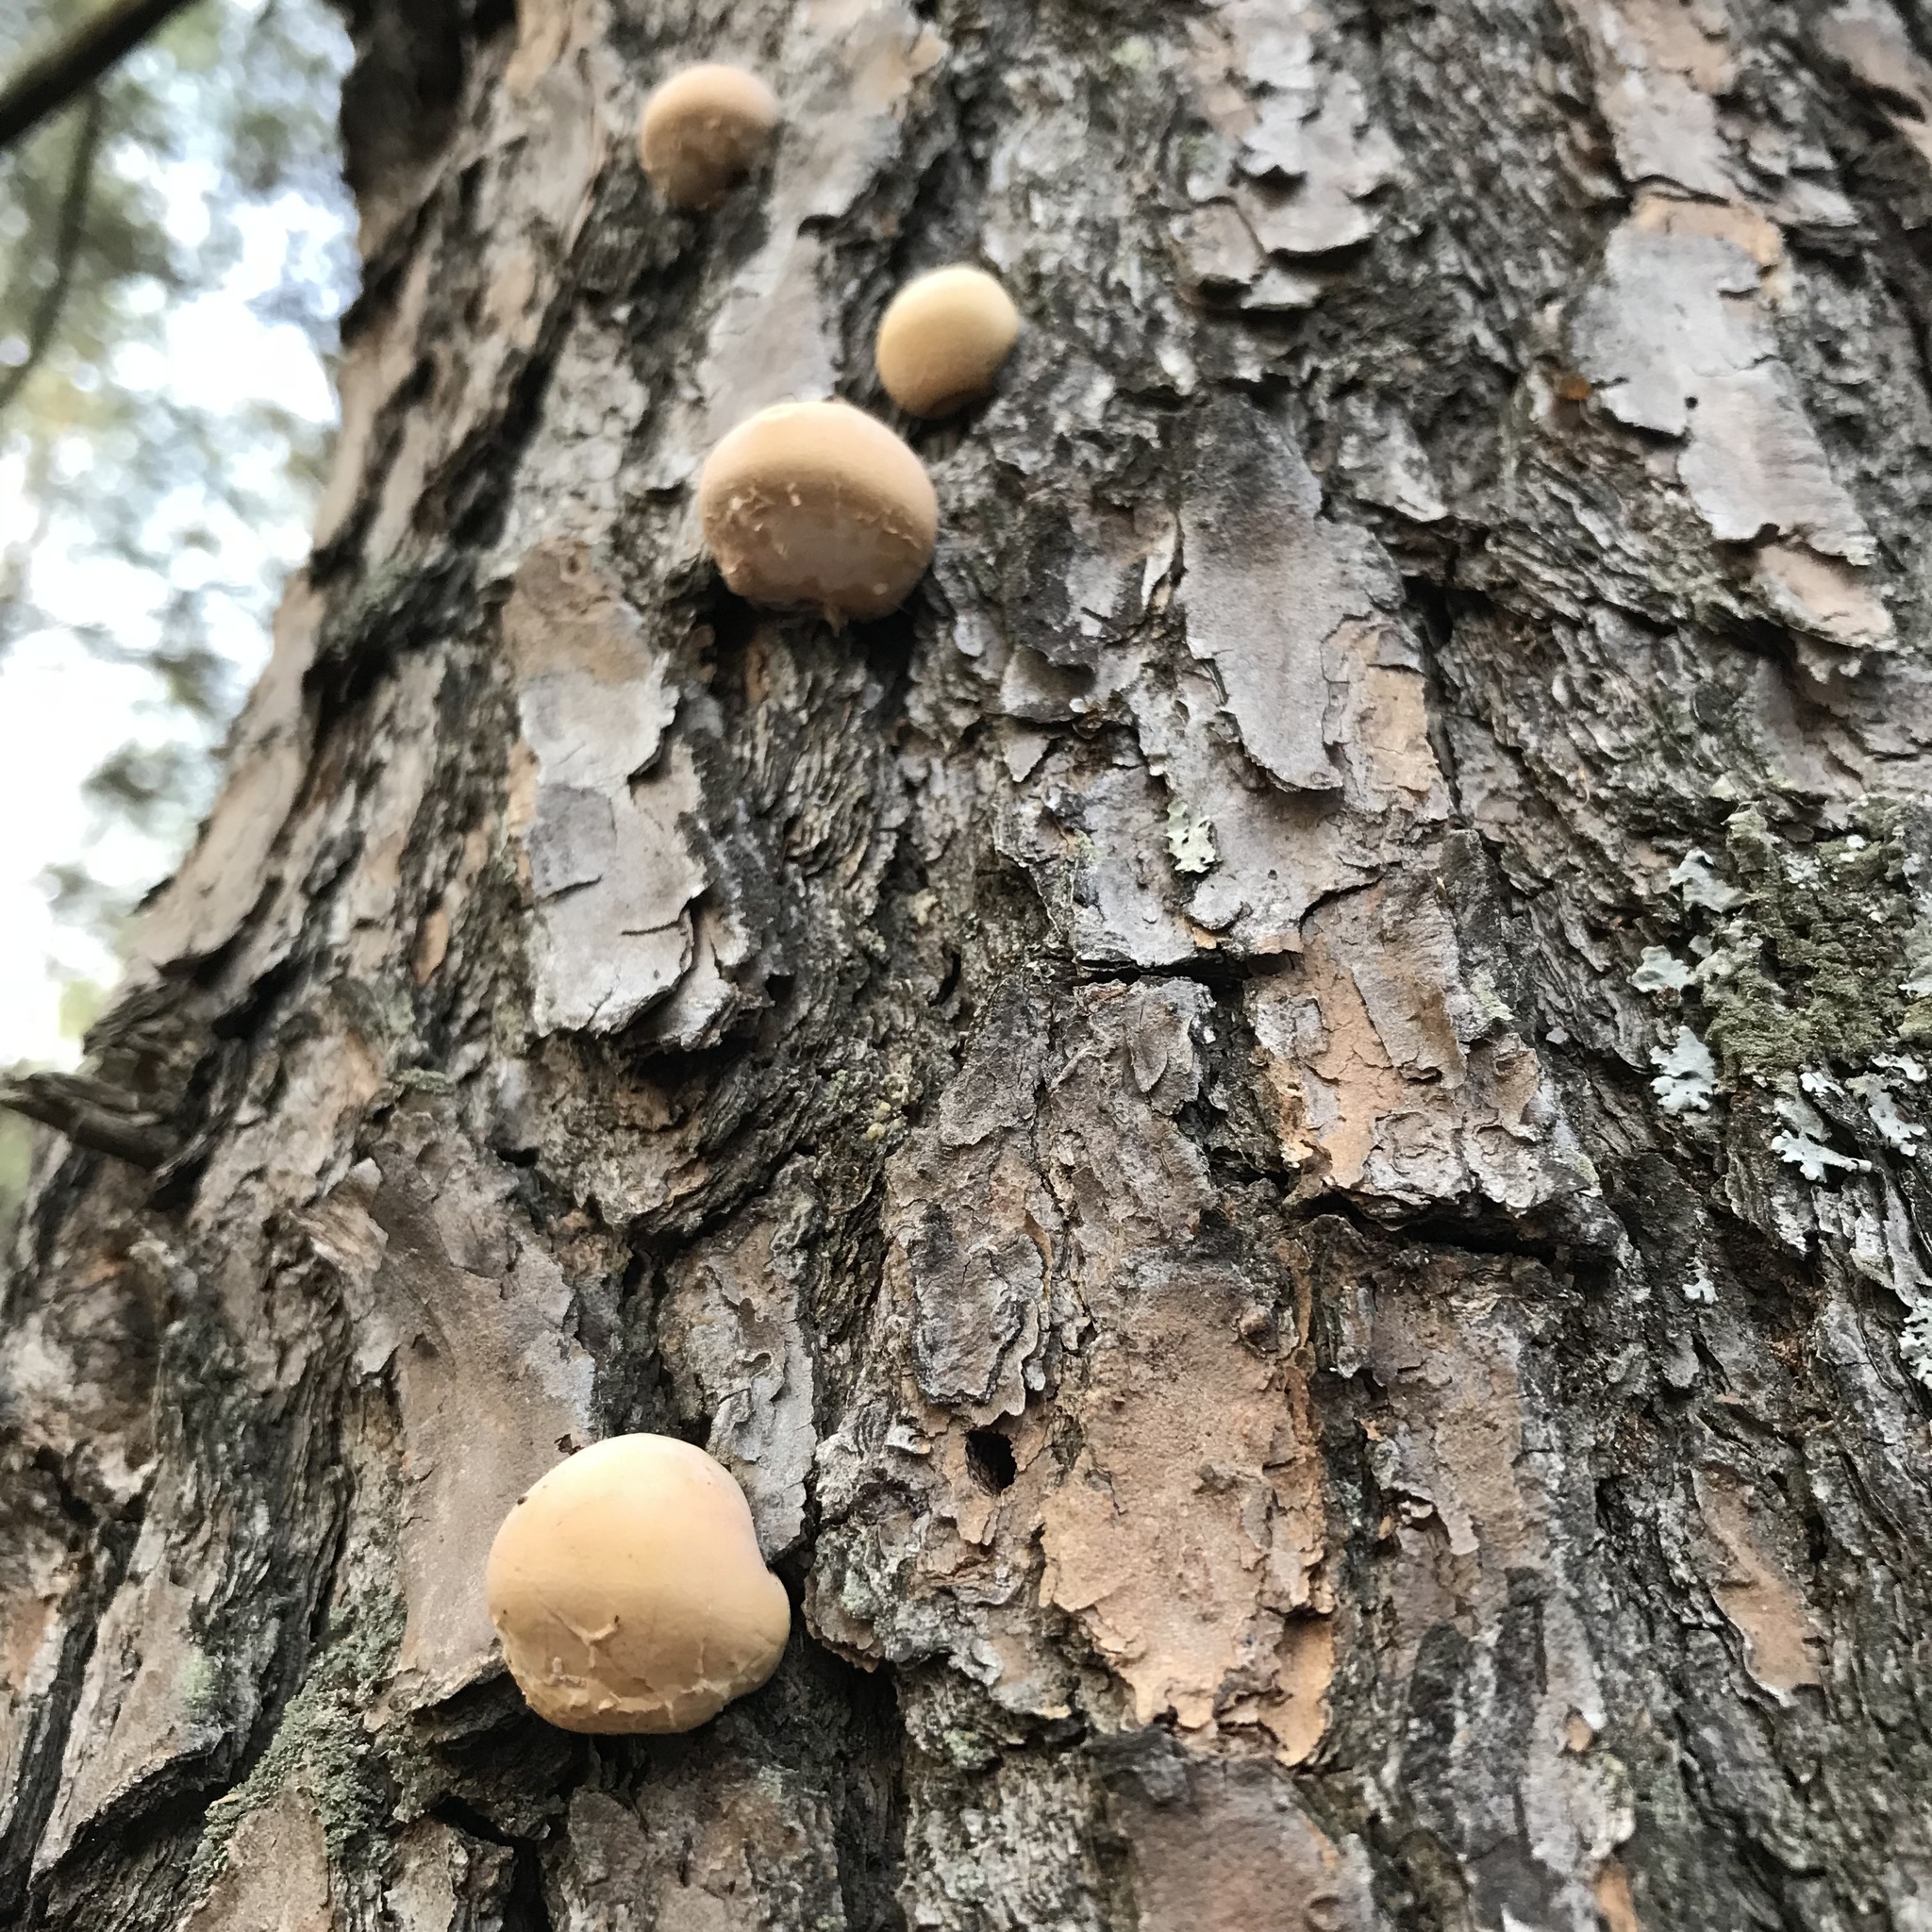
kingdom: Fungi
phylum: Basidiomycota
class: Agaricomycetes
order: Polyporales
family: Polyporaceae
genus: Cryptoporus
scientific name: Cryptoporus volvatus
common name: Veiled polypore
